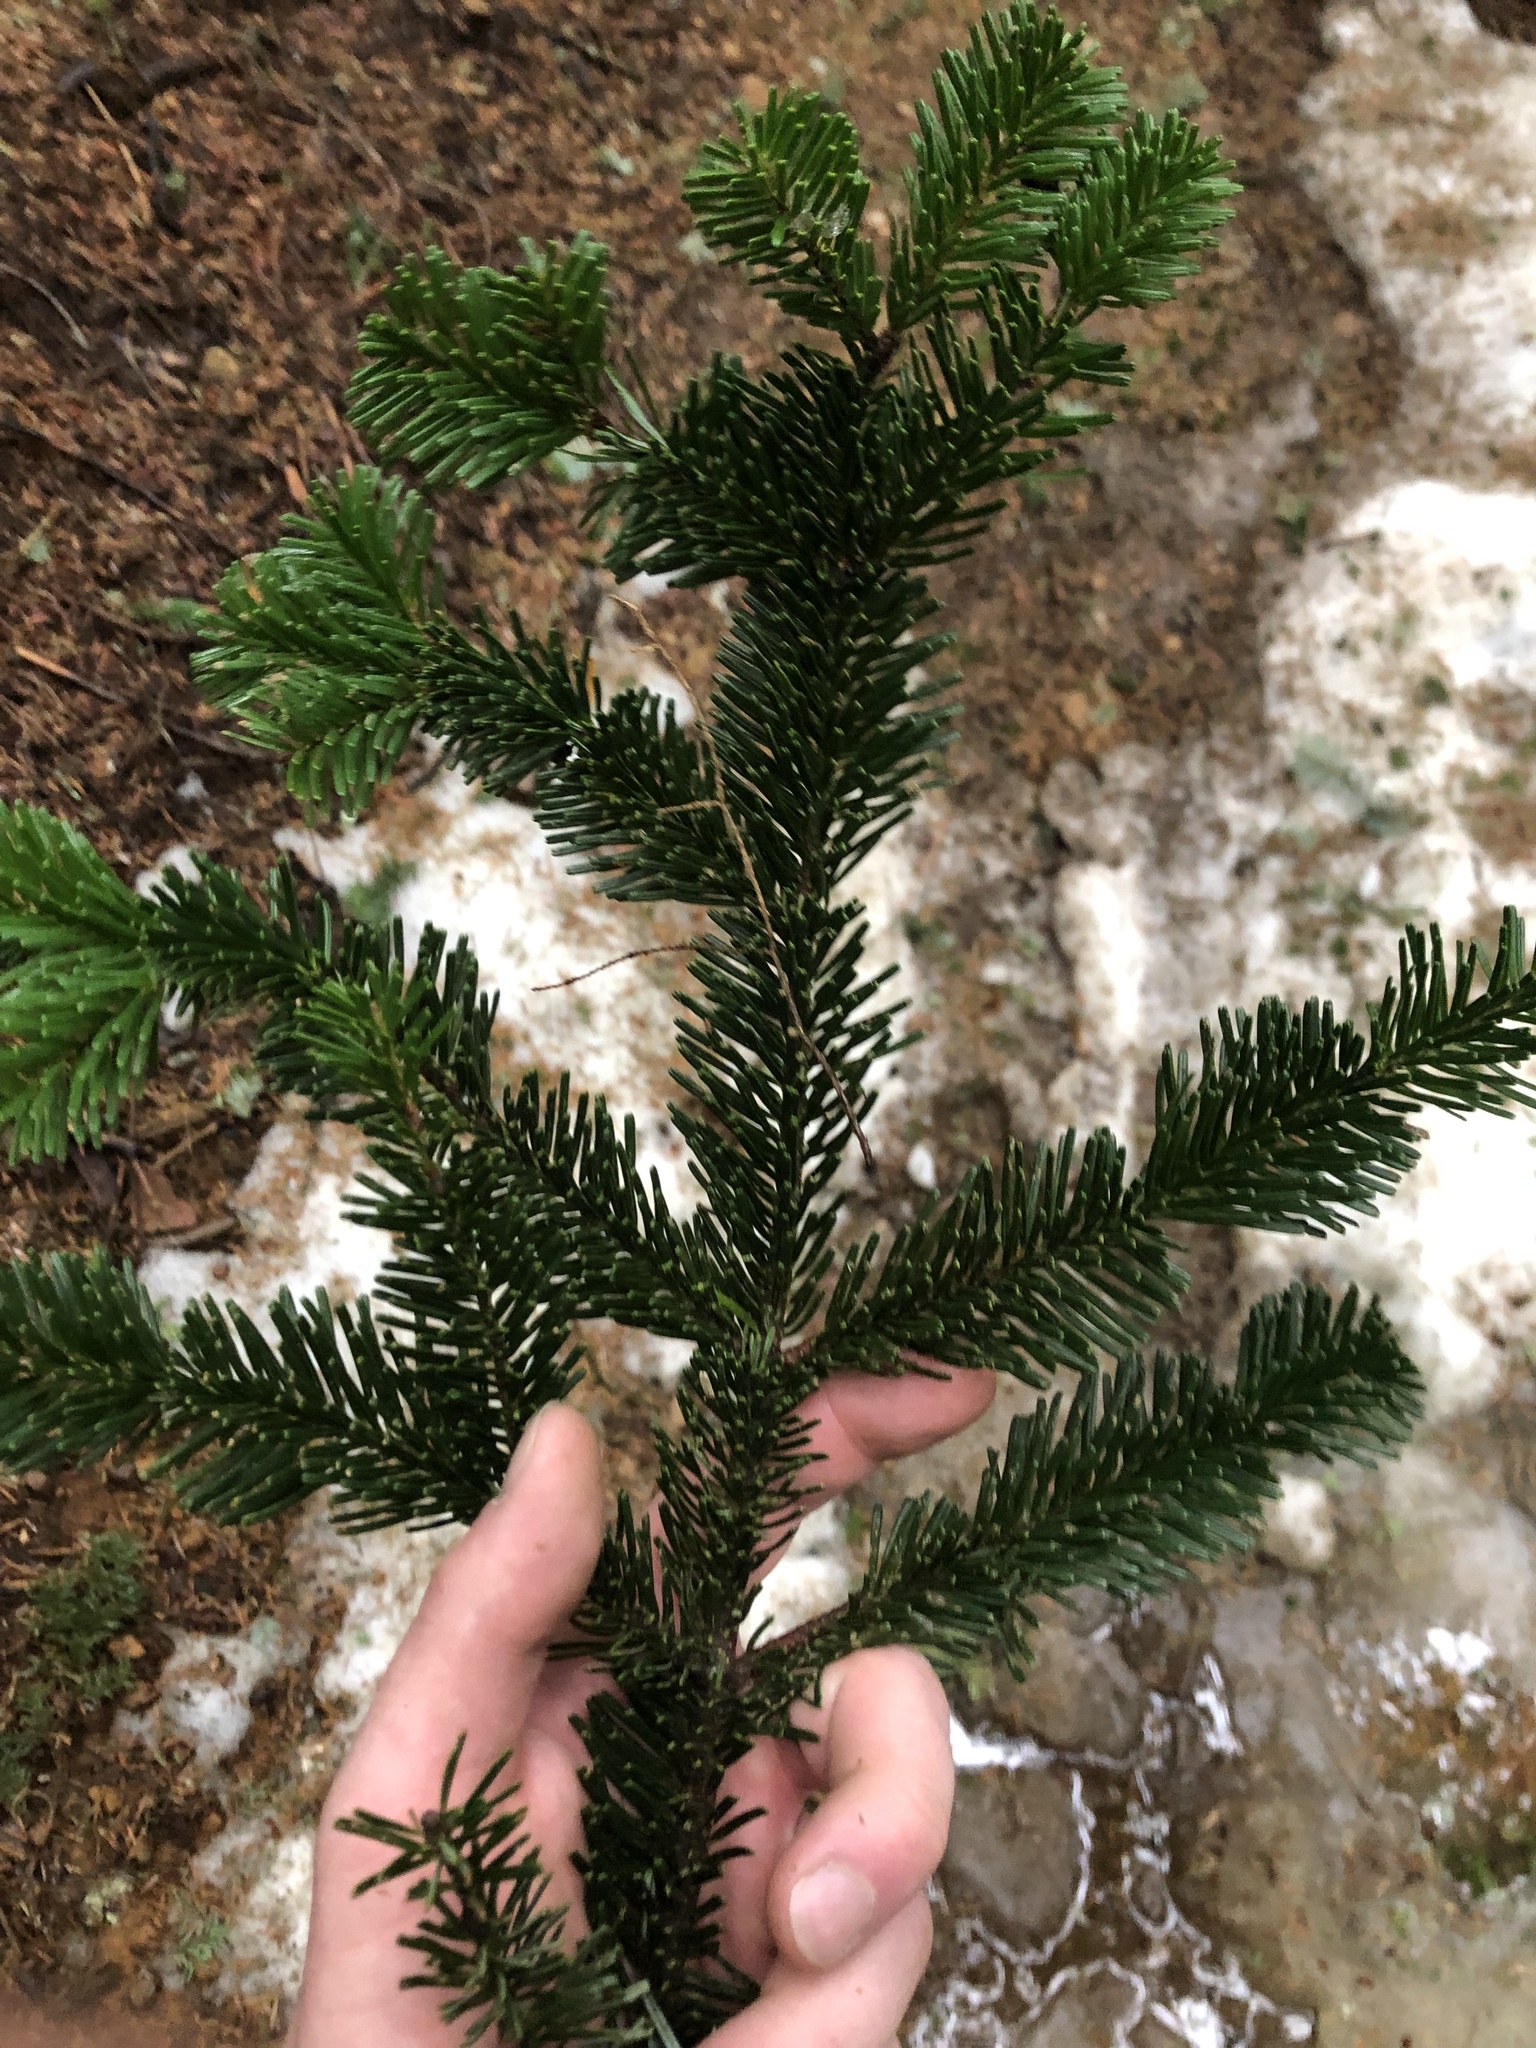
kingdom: Plantae
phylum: Tracheophyta
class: Pinopsida
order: Pinales
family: Pinaceae
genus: Abies
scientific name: Abies amabilis
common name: Pacific silver fir
